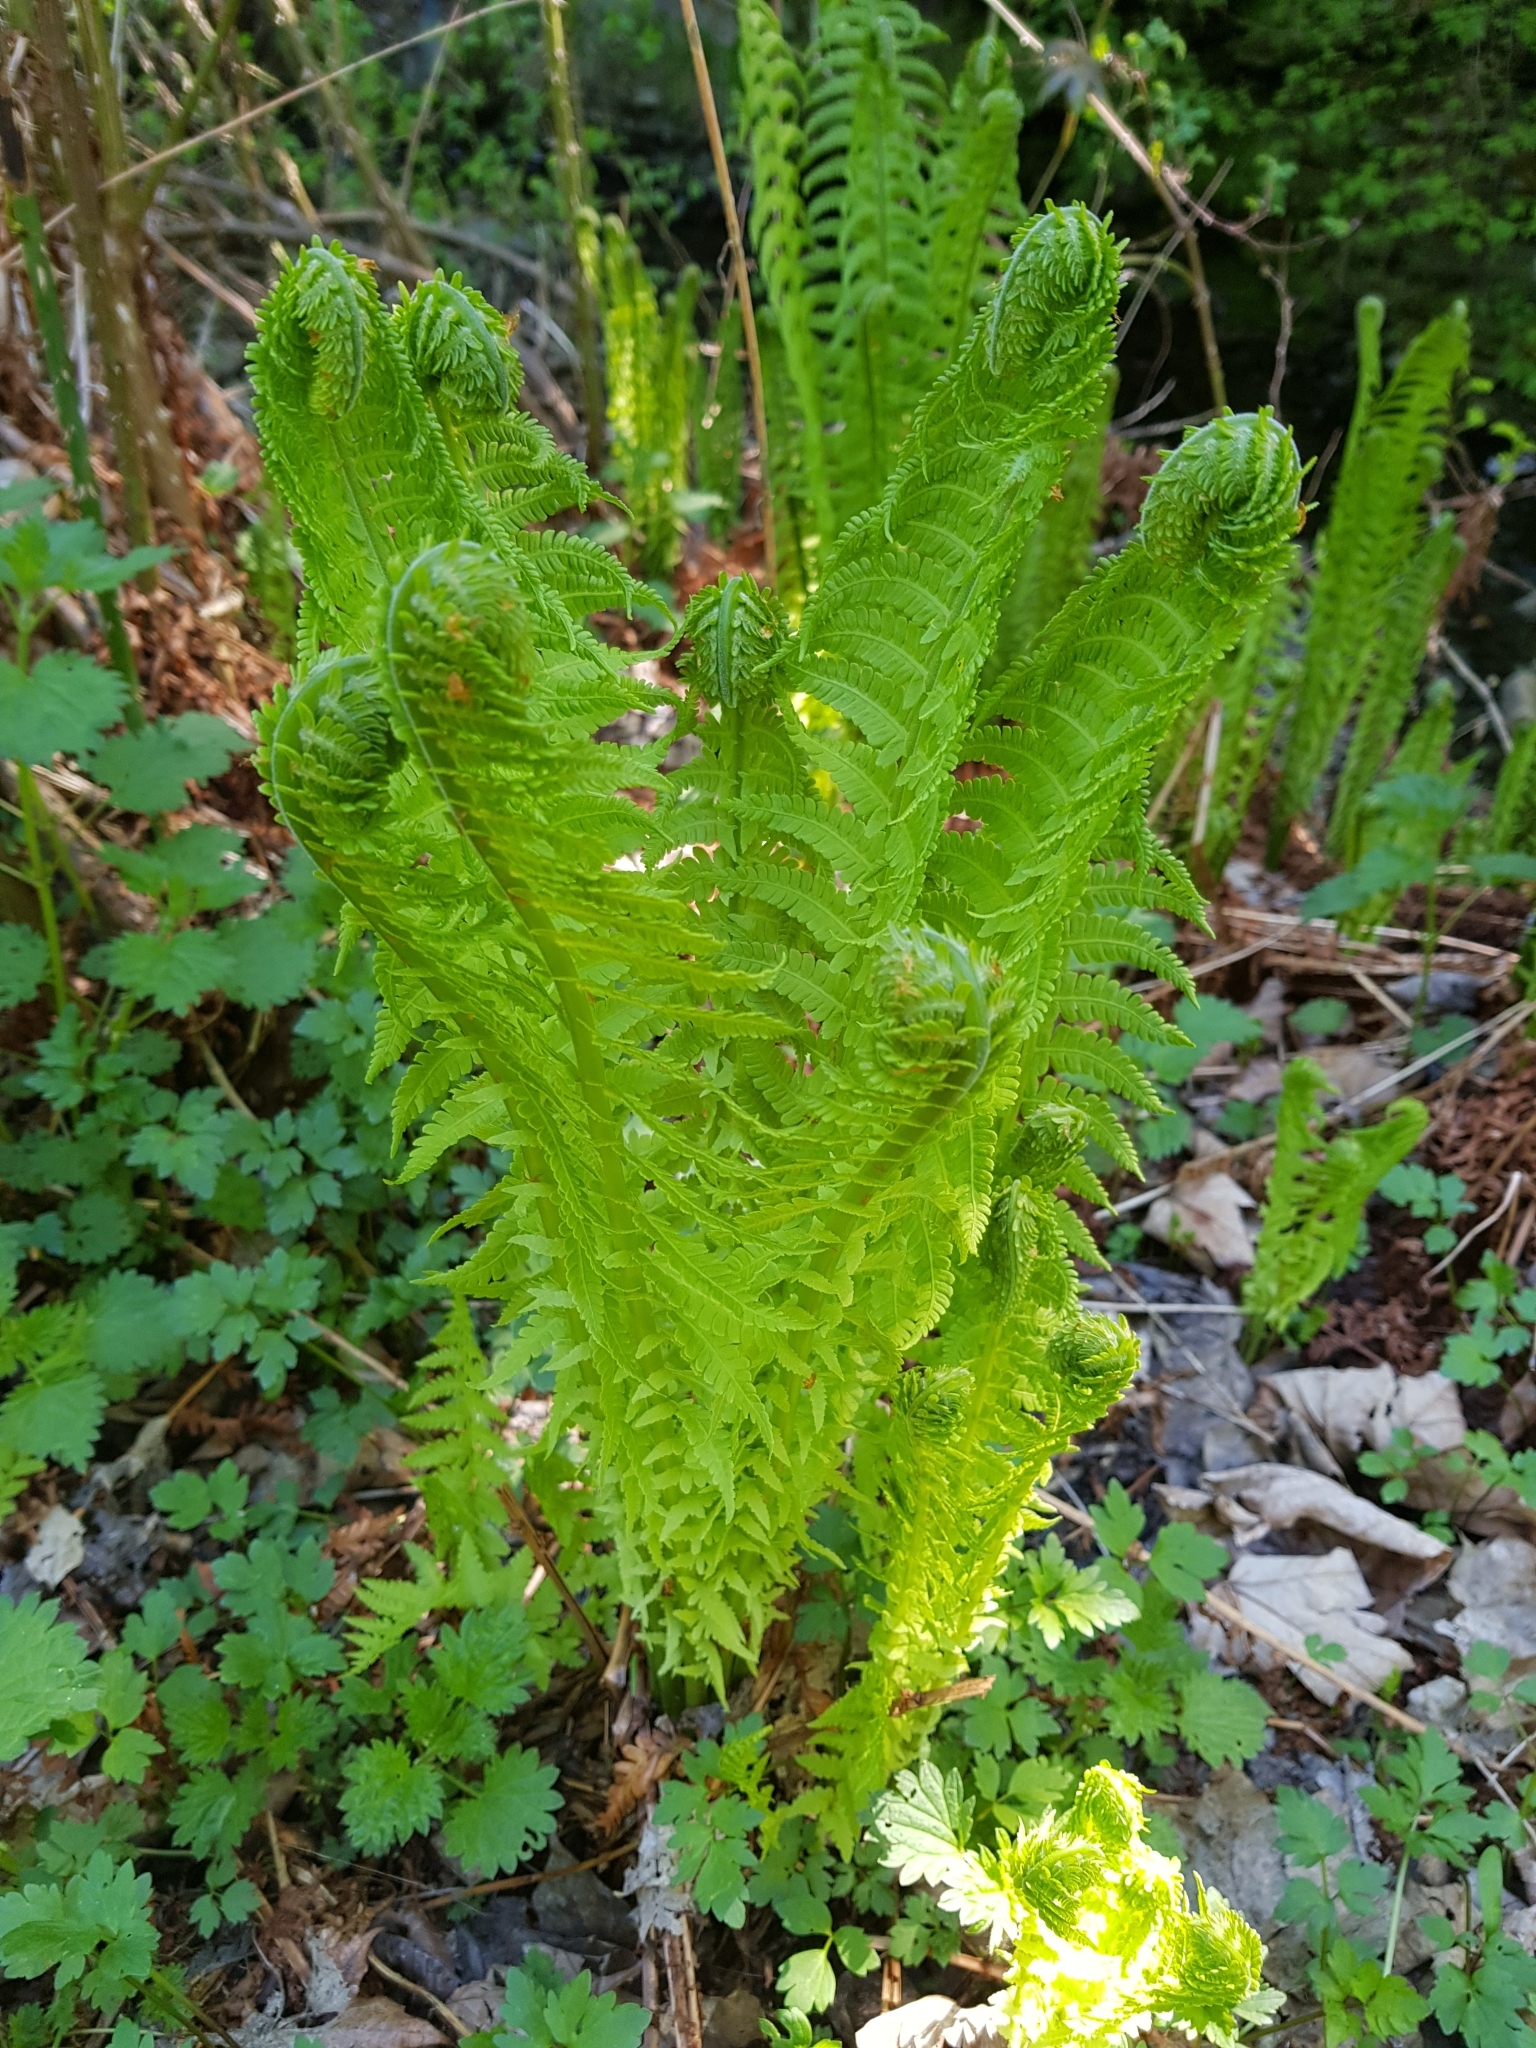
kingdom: Plantae
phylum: Tracheophyta
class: Polypodiopsida
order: Polypodiales
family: Onocleaceae
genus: Matteuccia
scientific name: Matteuccia struthiopteris
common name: Ostrich fern
